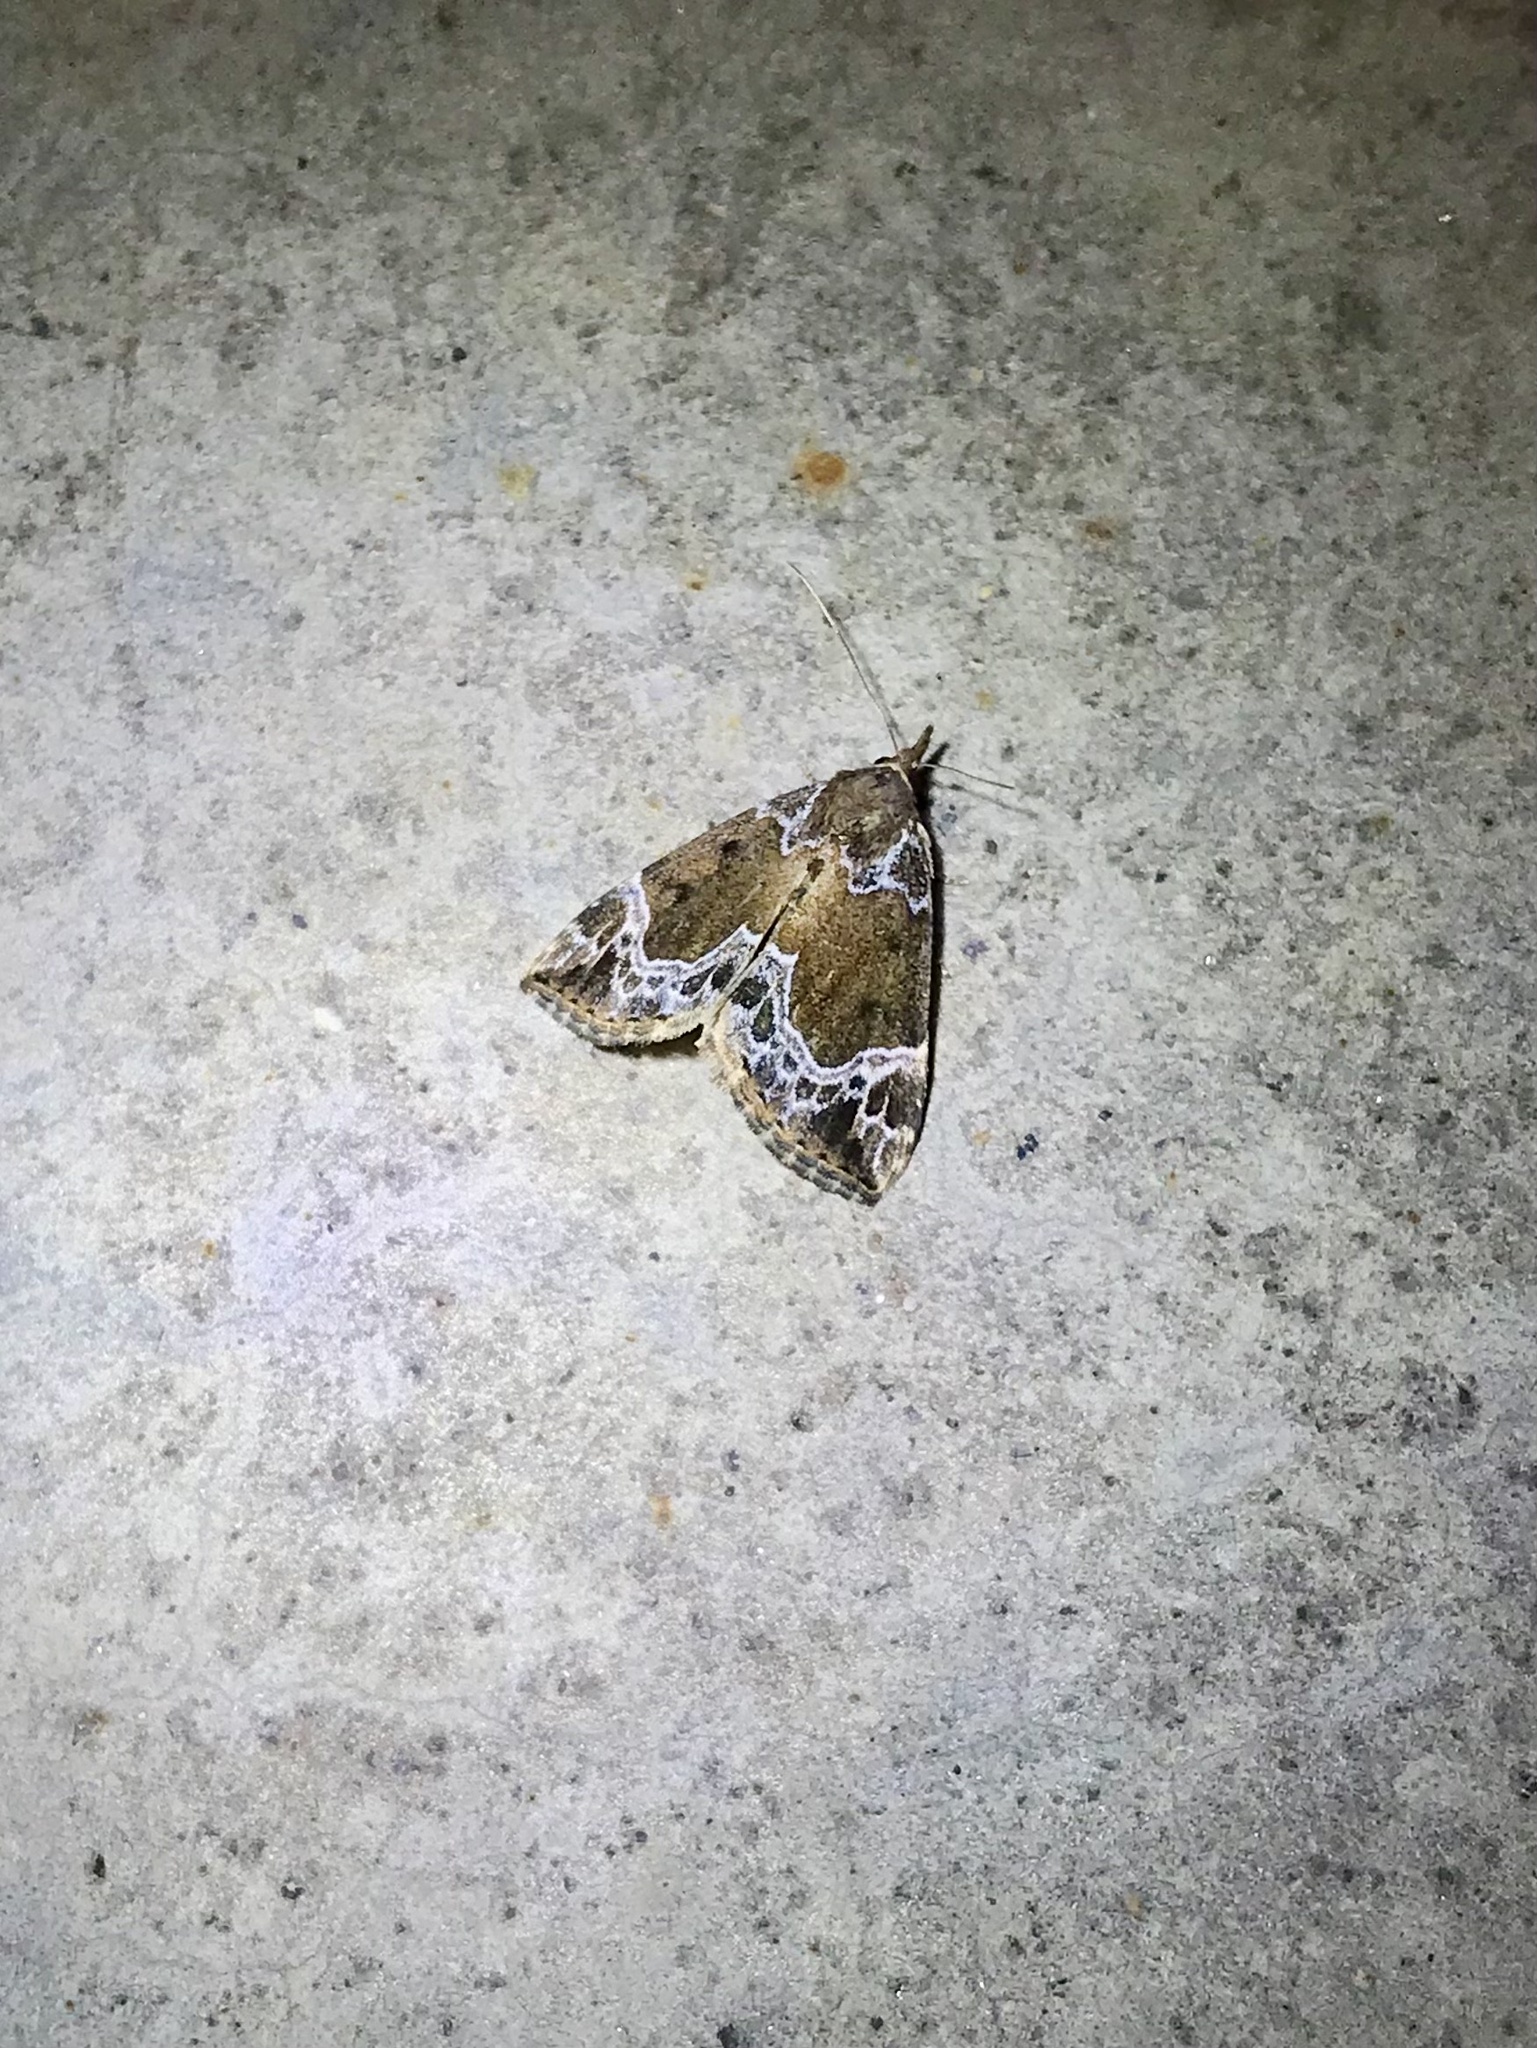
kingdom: Animalia
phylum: Arthropoda
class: Insecta
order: Lepidoptera
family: Erebidae
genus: Hypena
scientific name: Hypena abalienalis
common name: White-lined snout
